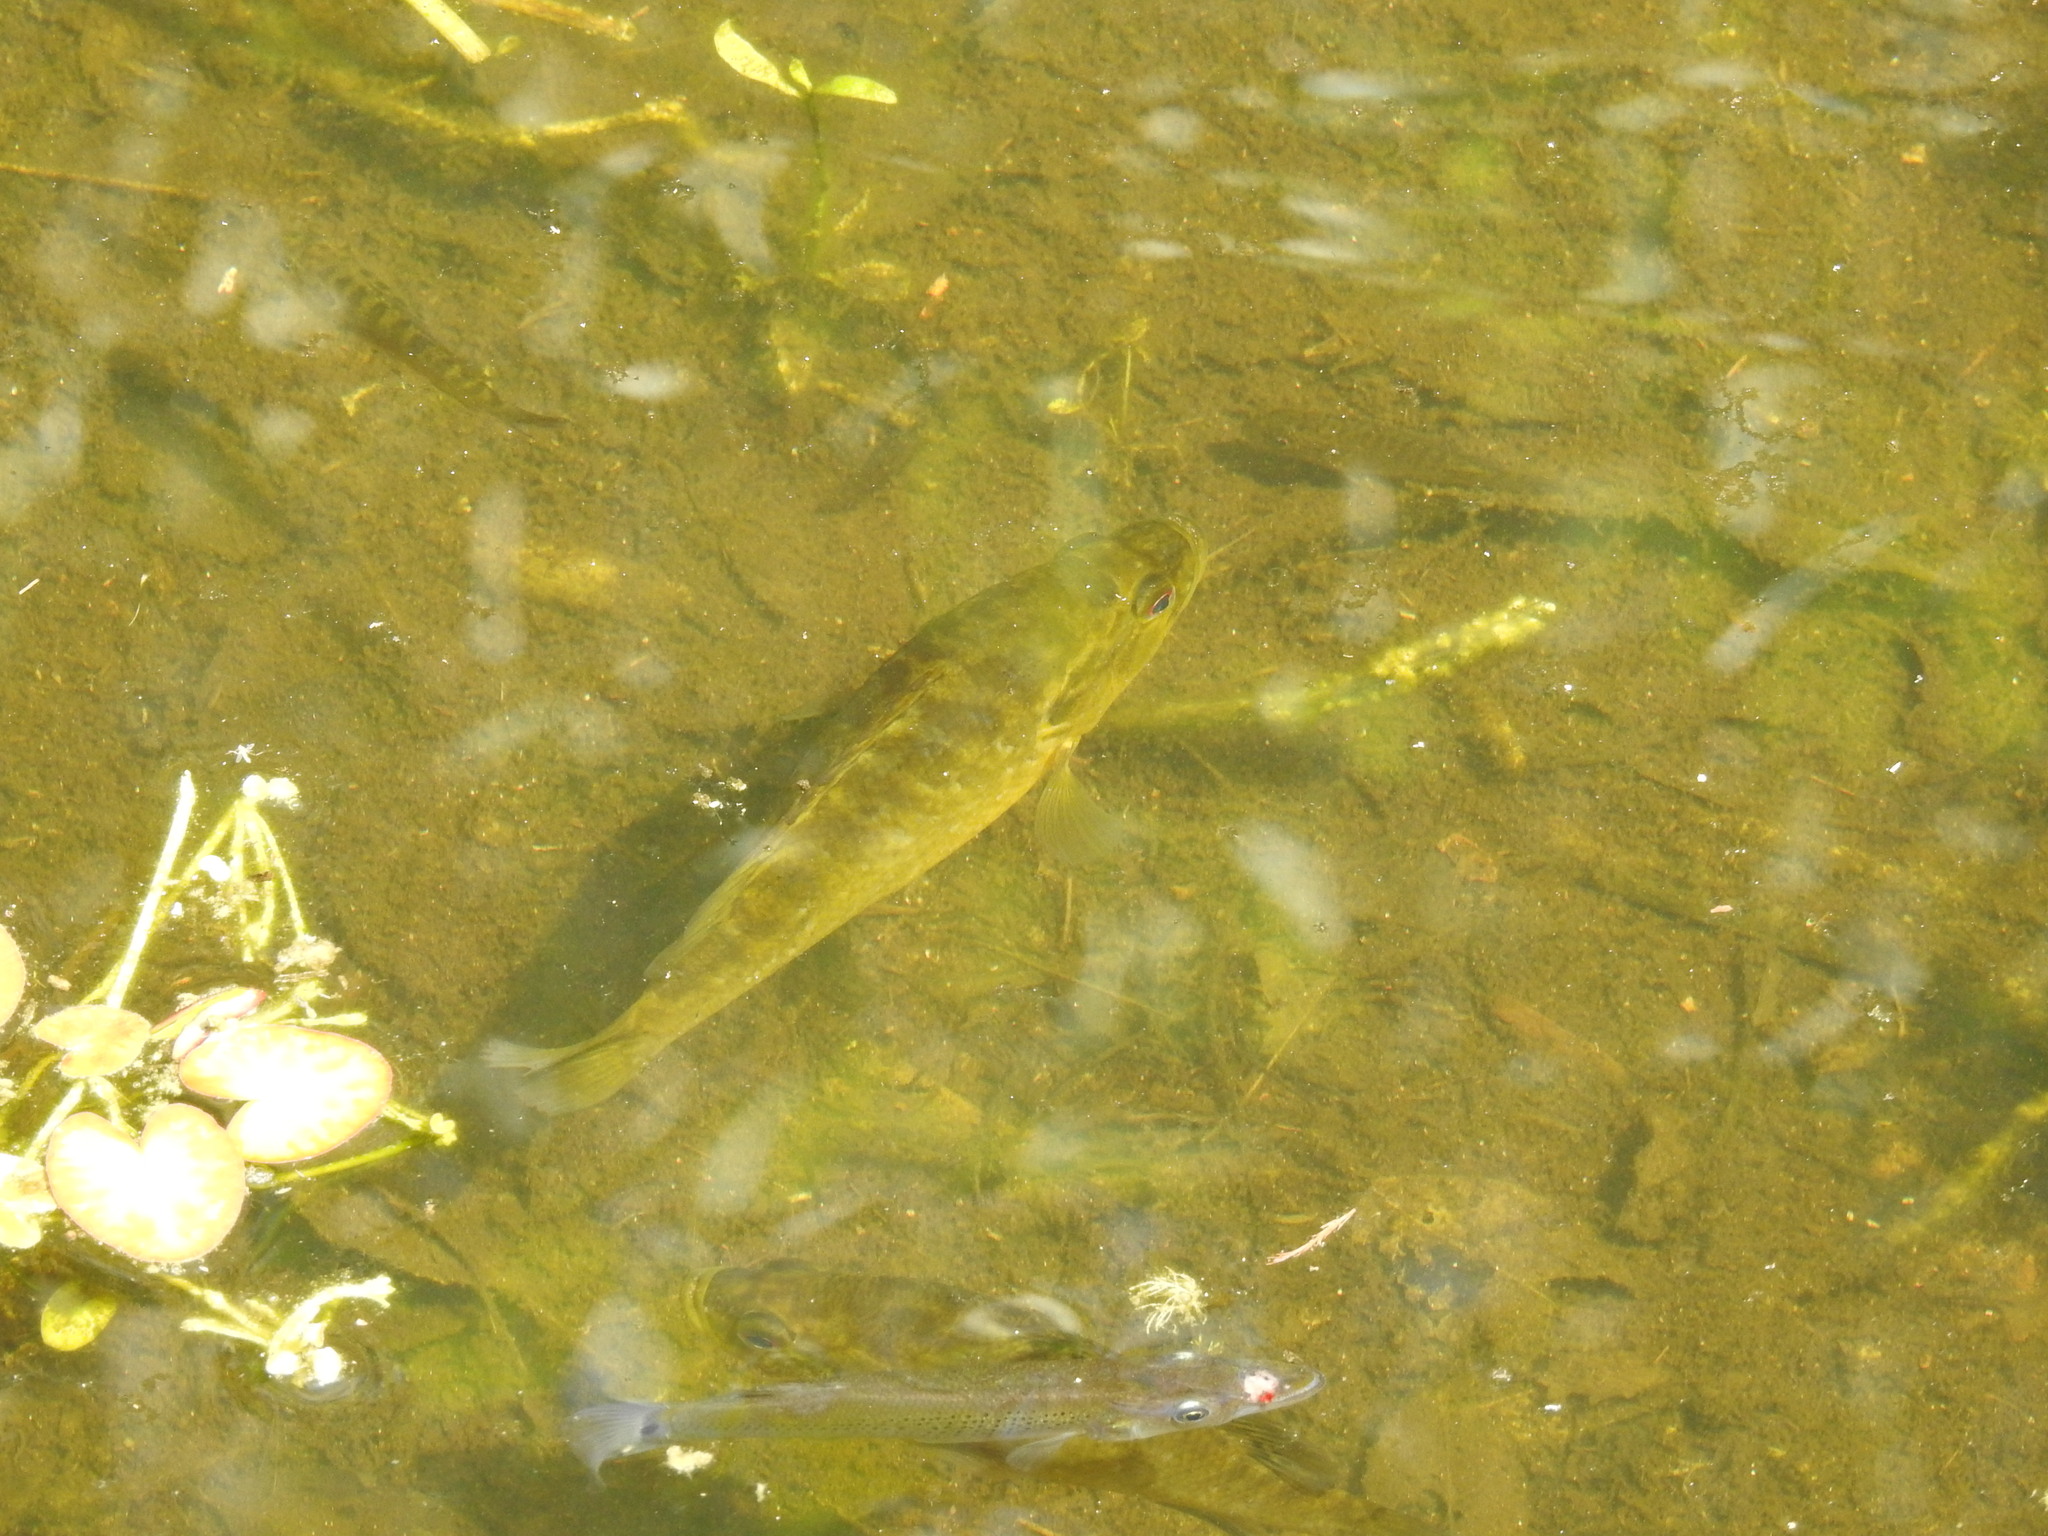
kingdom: Animalia
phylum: Chordata
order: Perciformes
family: Centrarchidae
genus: Lepomis
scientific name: Lepomis gulosus
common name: Warmouth
